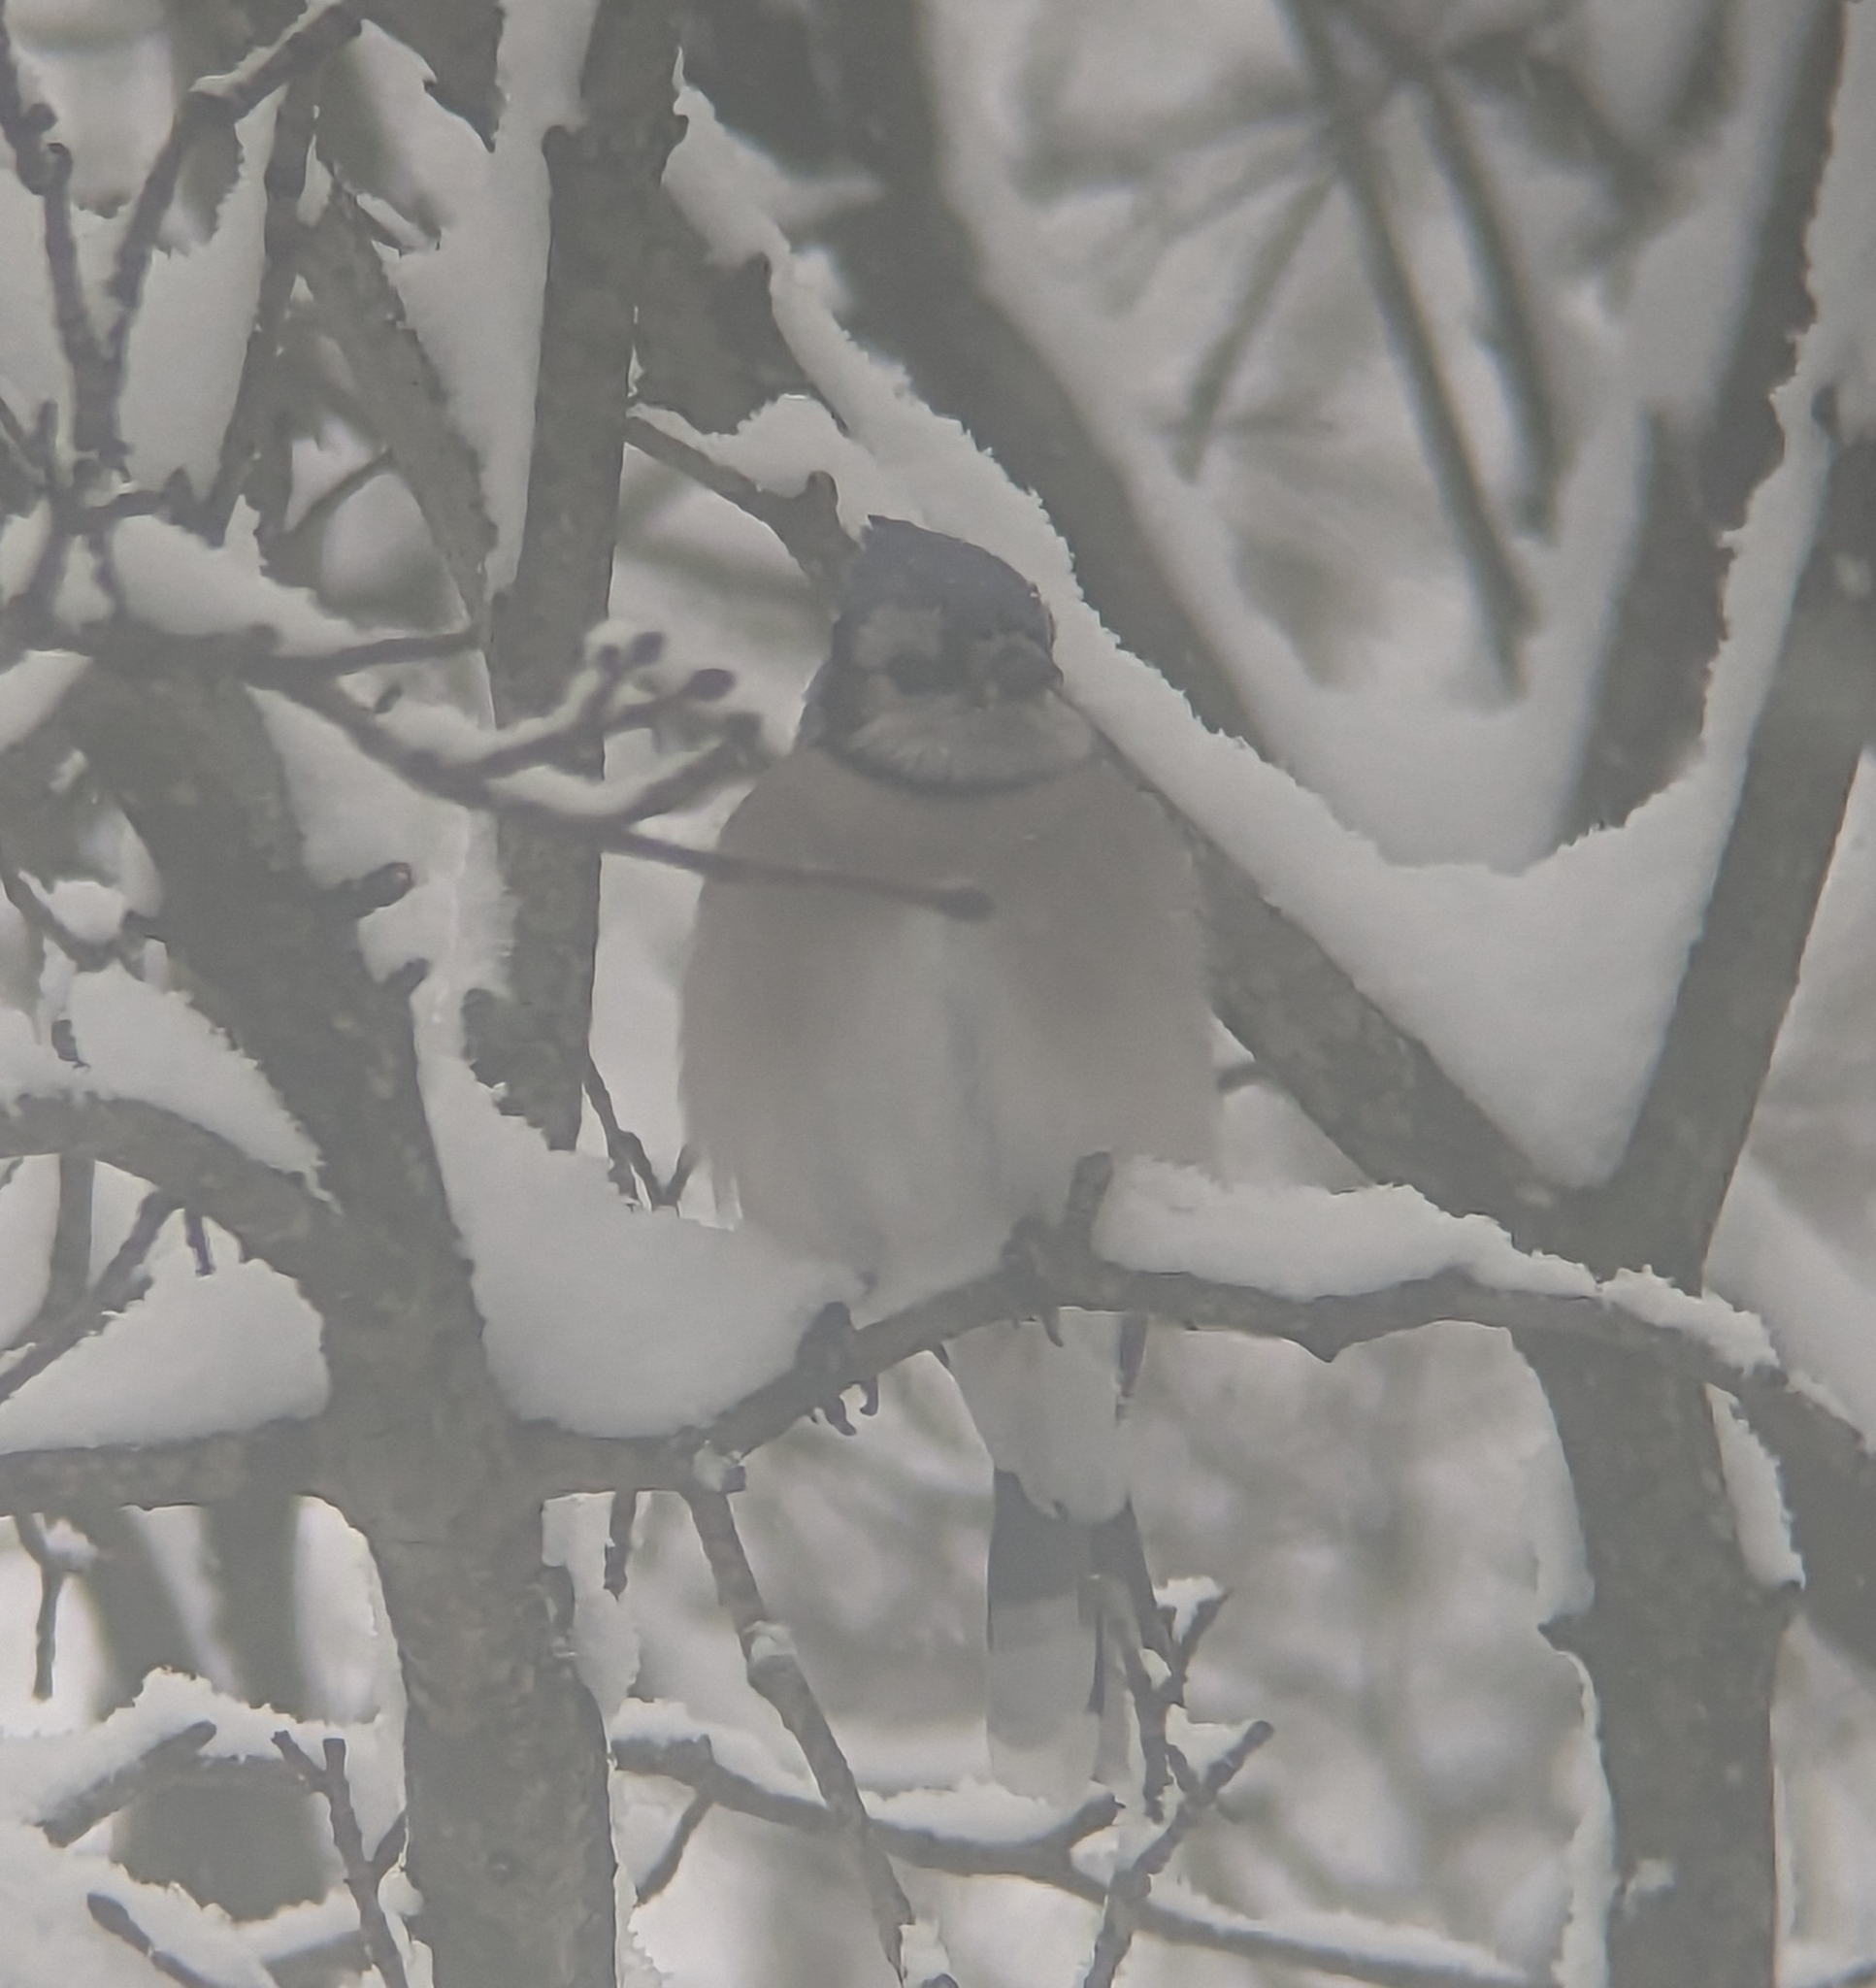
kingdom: Animalia
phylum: Chordata
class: Aves
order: Passeriformes
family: Corvidae
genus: Cyanocitta
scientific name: Cyanocitta cristata
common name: Blue jay
